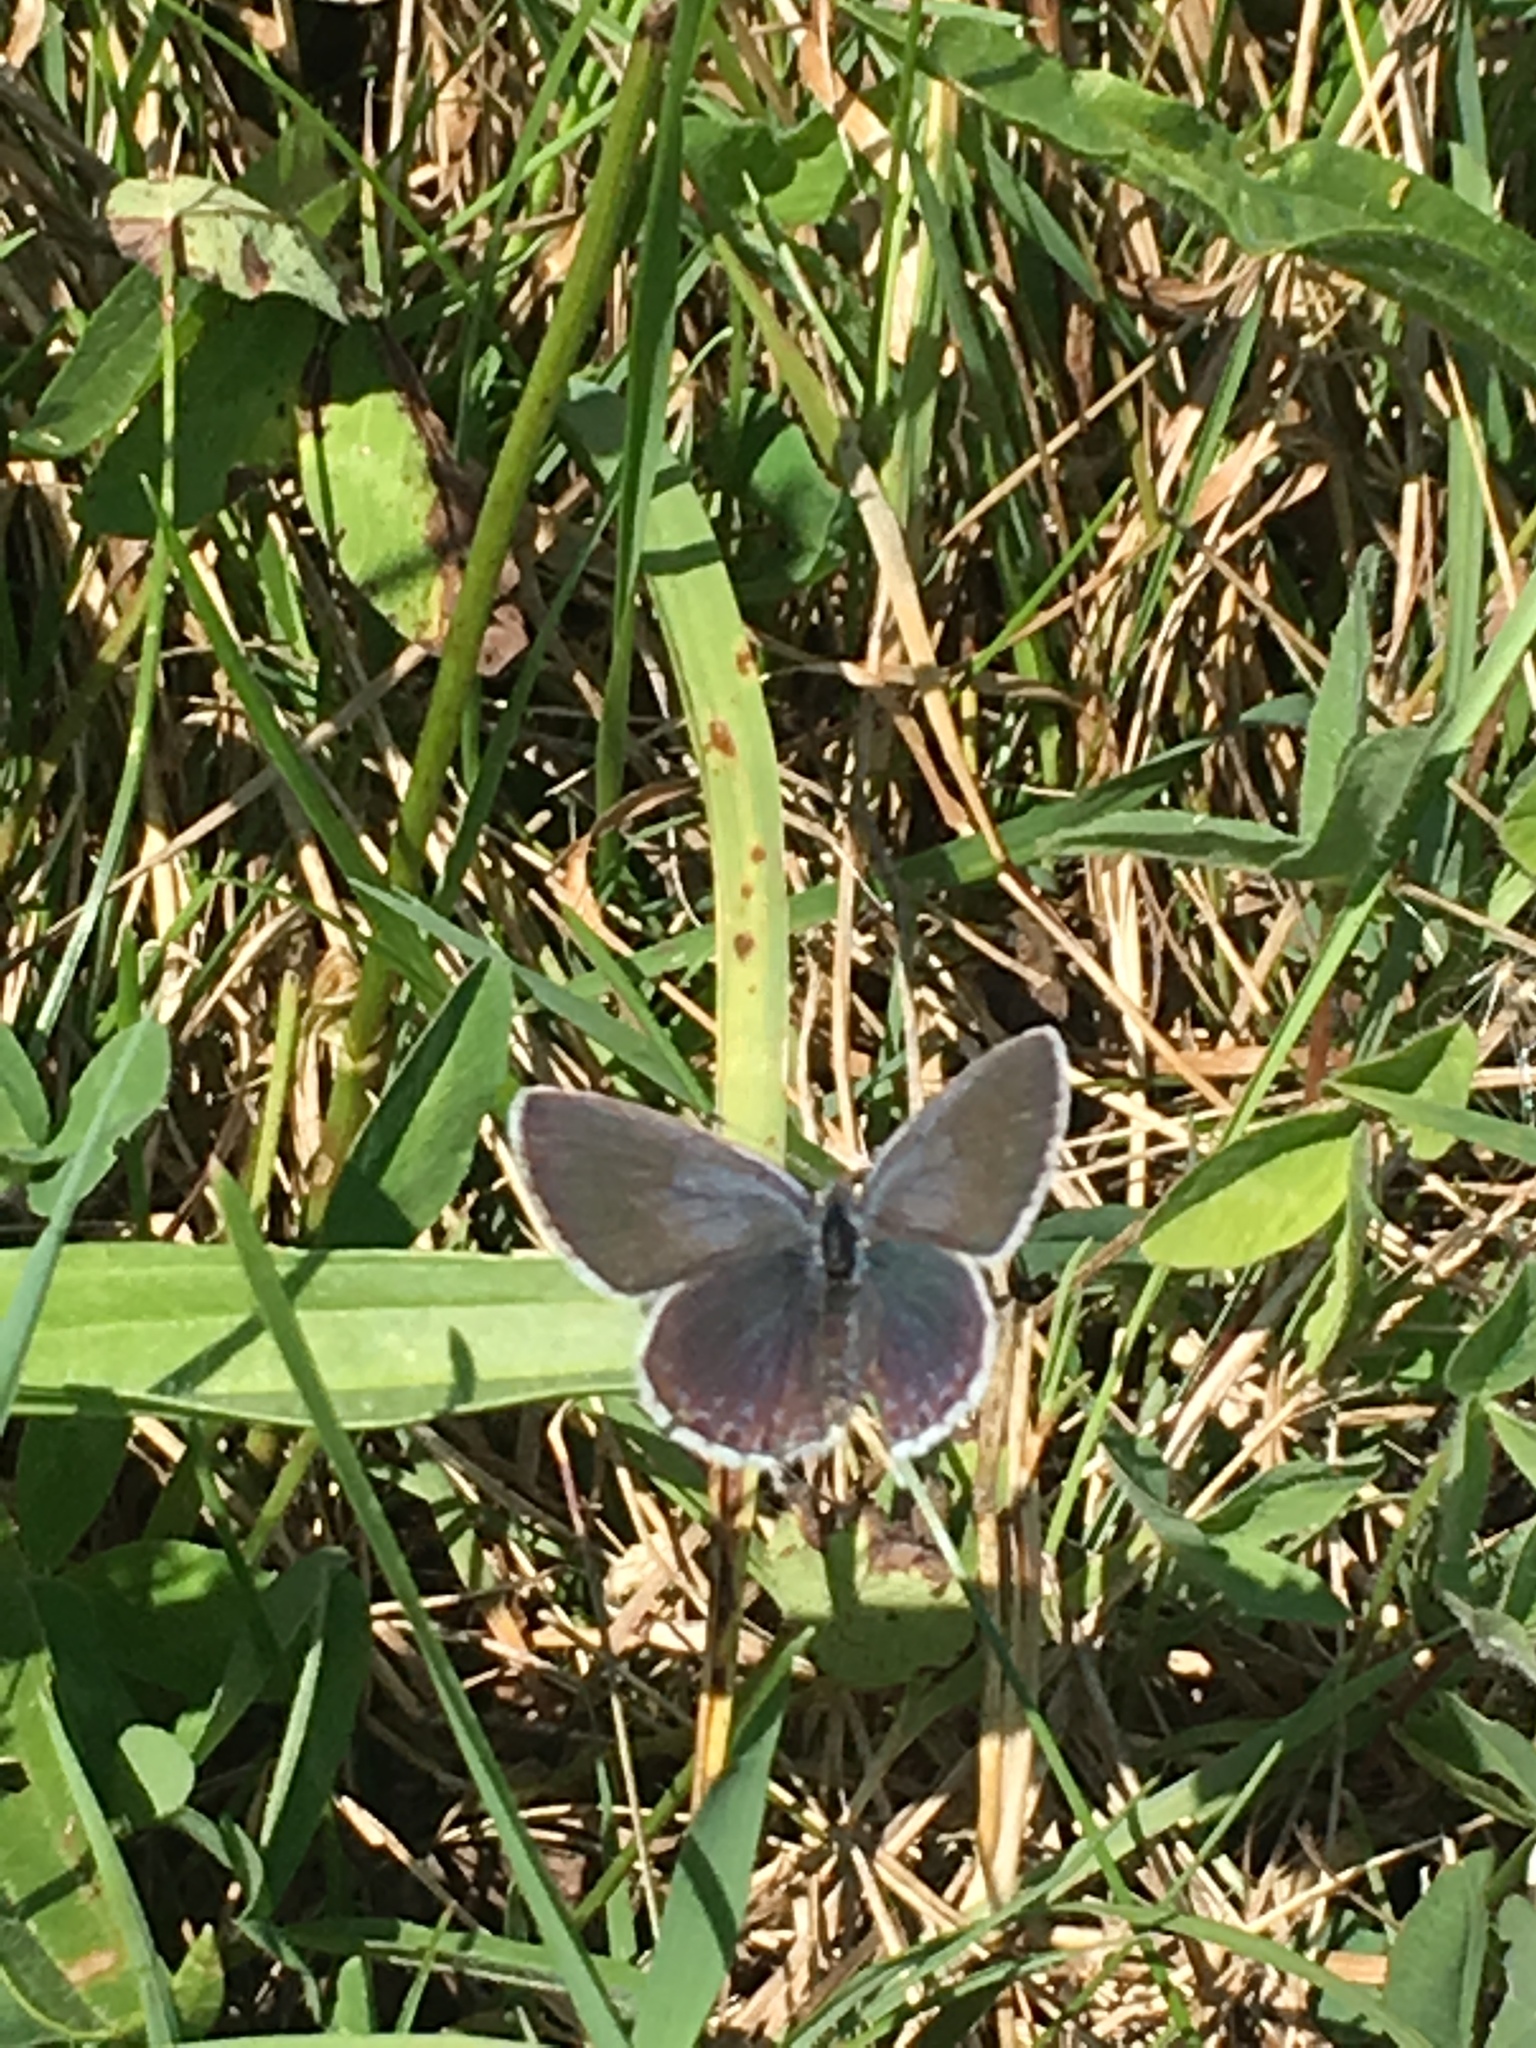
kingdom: Animalia
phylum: Arthropoda
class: Insecta
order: Lepidoptera
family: Lycaenidae
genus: Celastrina
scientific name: Celastrina argiolus
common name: Holly blue
